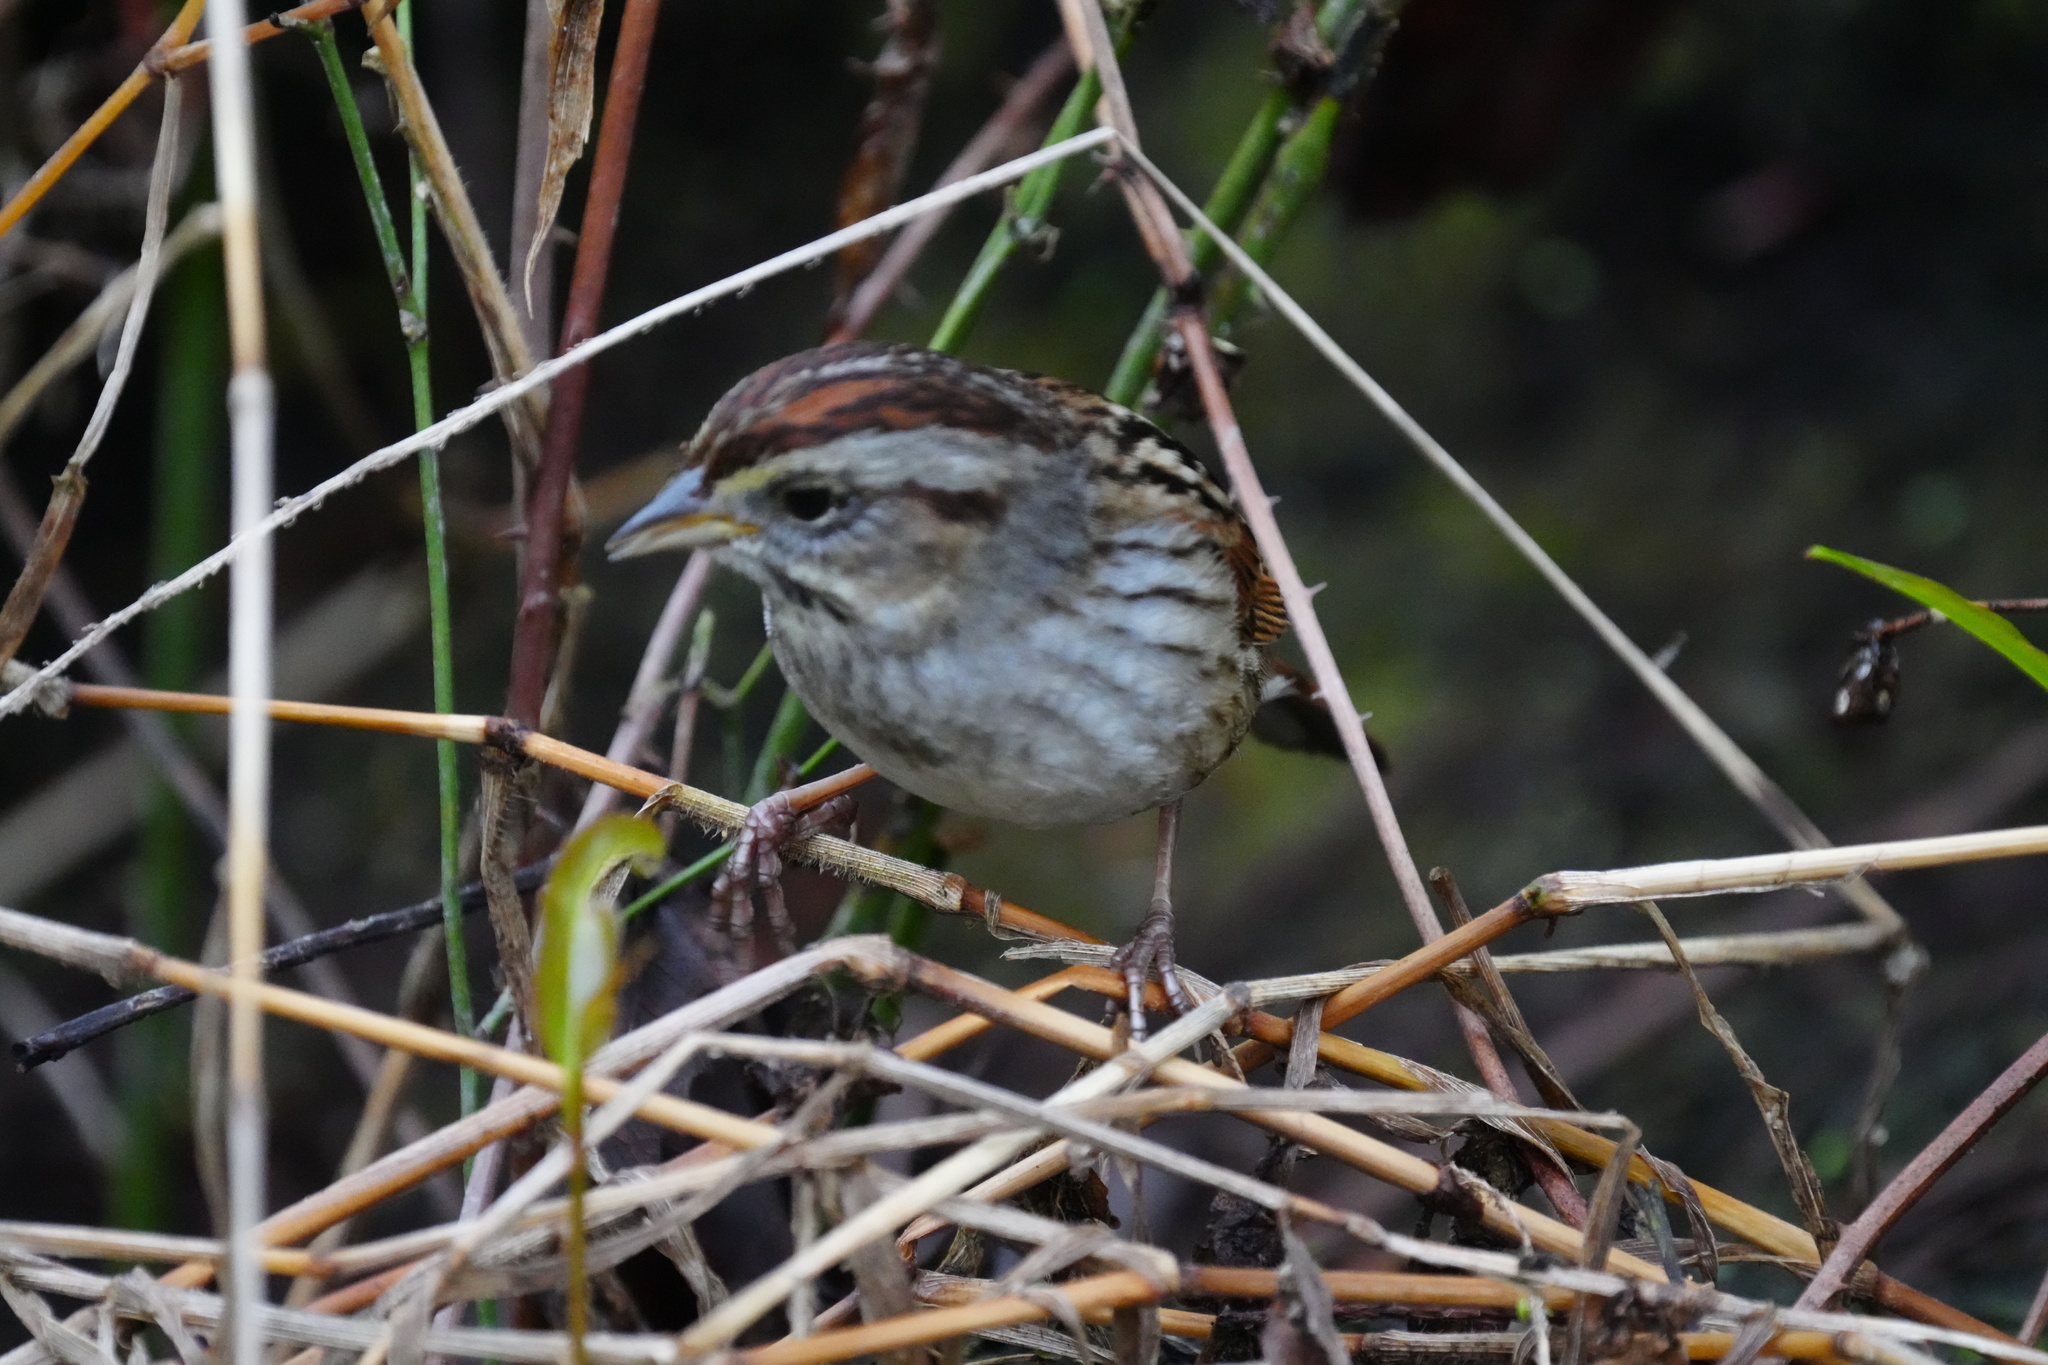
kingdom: Animalia
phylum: Chordata
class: Aves
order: Passeriformes
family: Passerellidae
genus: Melospiza
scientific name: Melospiza georgiana
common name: Swamp sparrow
